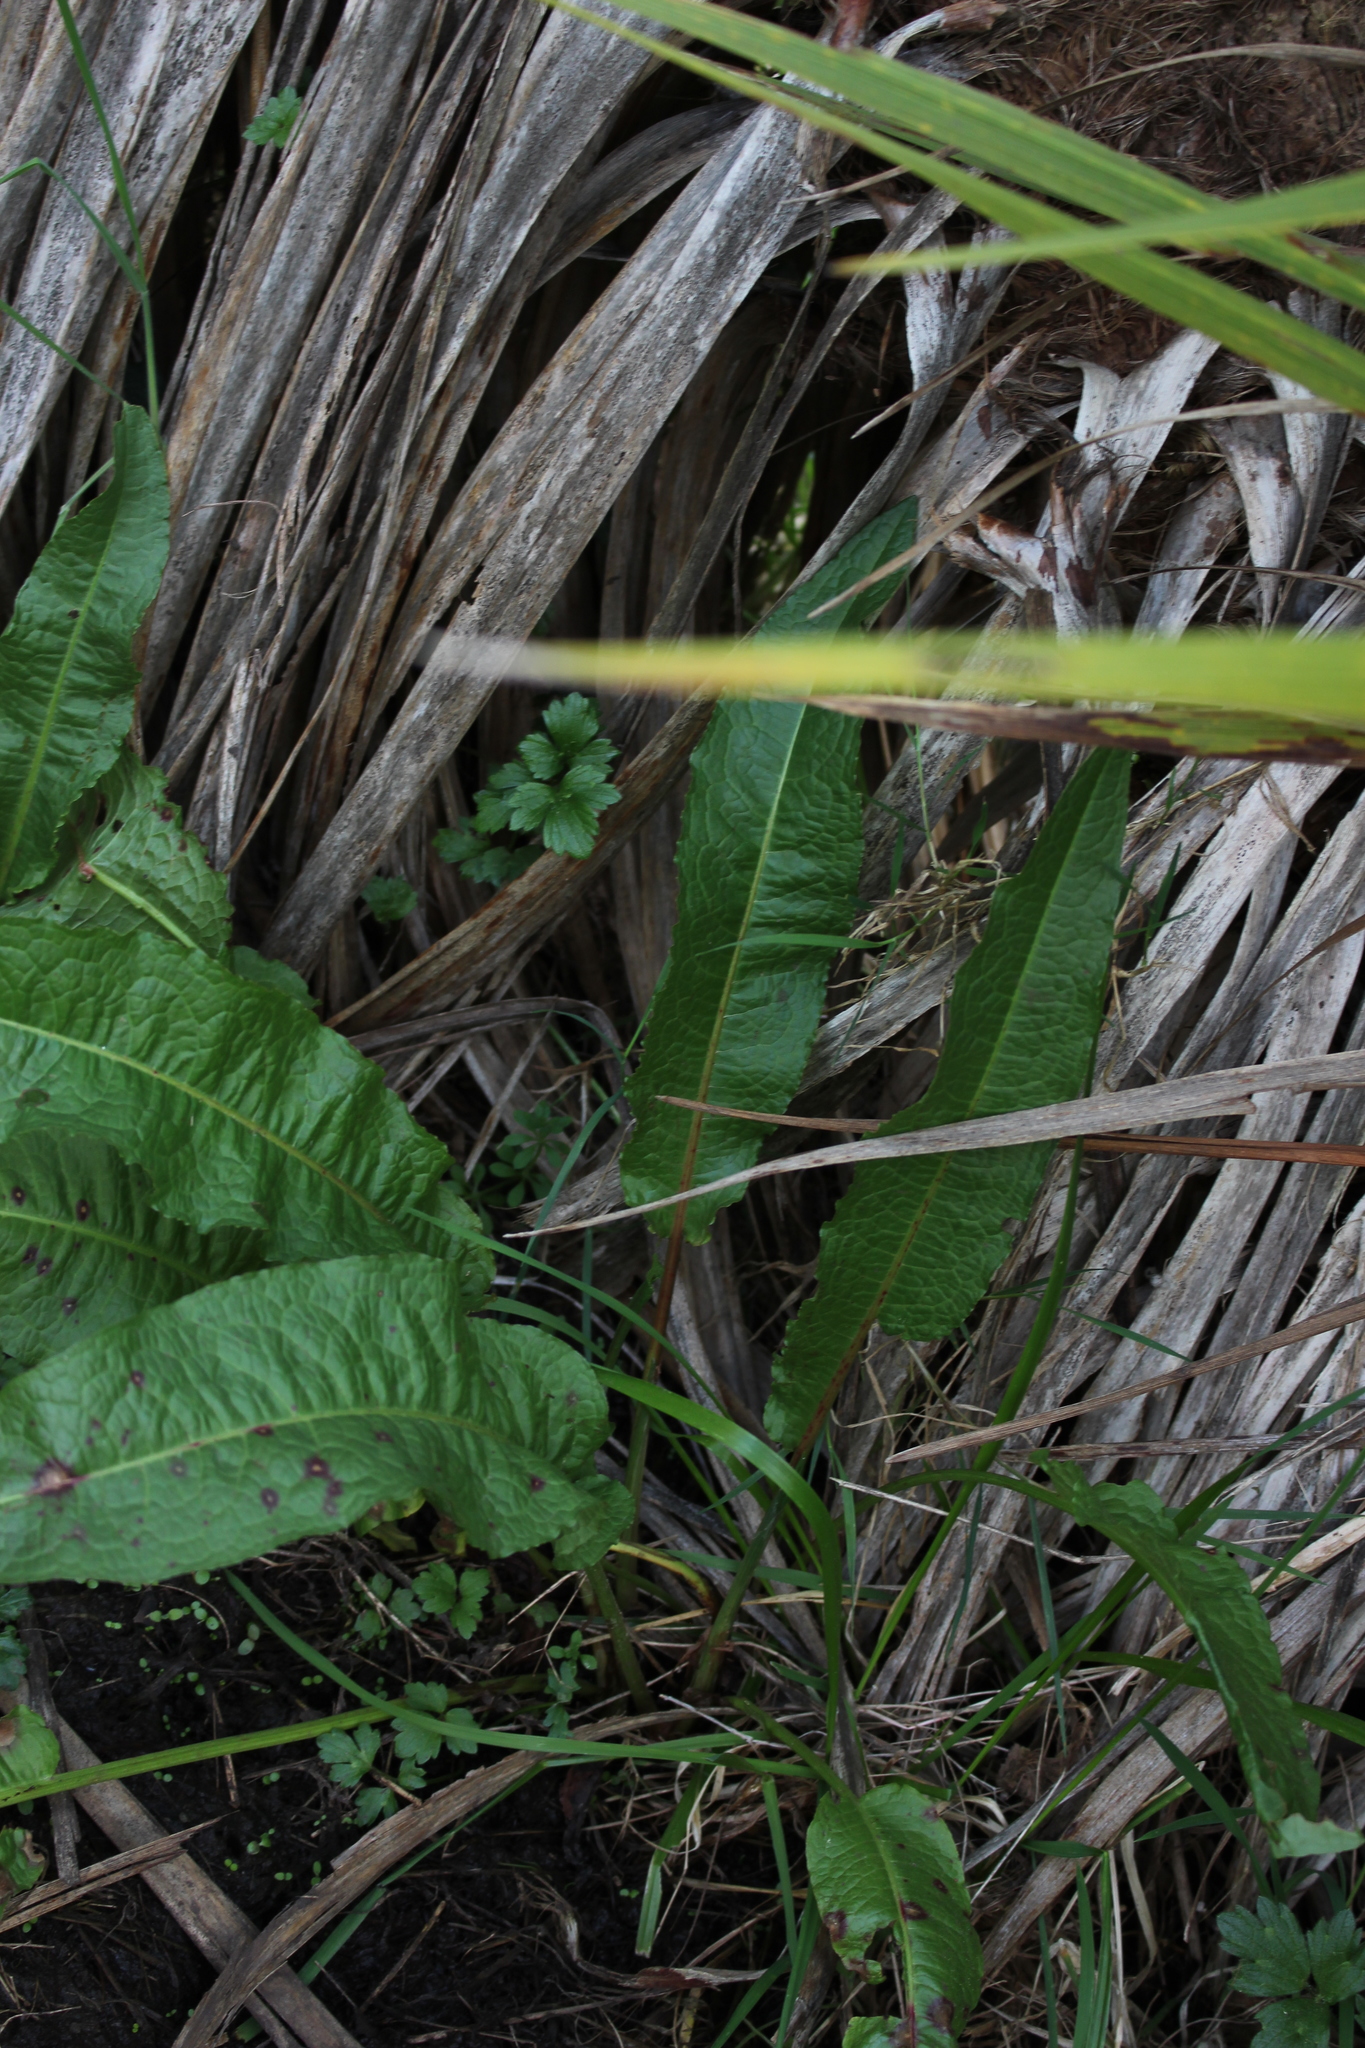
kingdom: Plantae
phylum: Tracheophyta
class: Magnoliopsida
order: Caryophyllales
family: Polygonaceae
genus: Rumex
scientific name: Rumex conglomeratus
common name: Clustered dock
